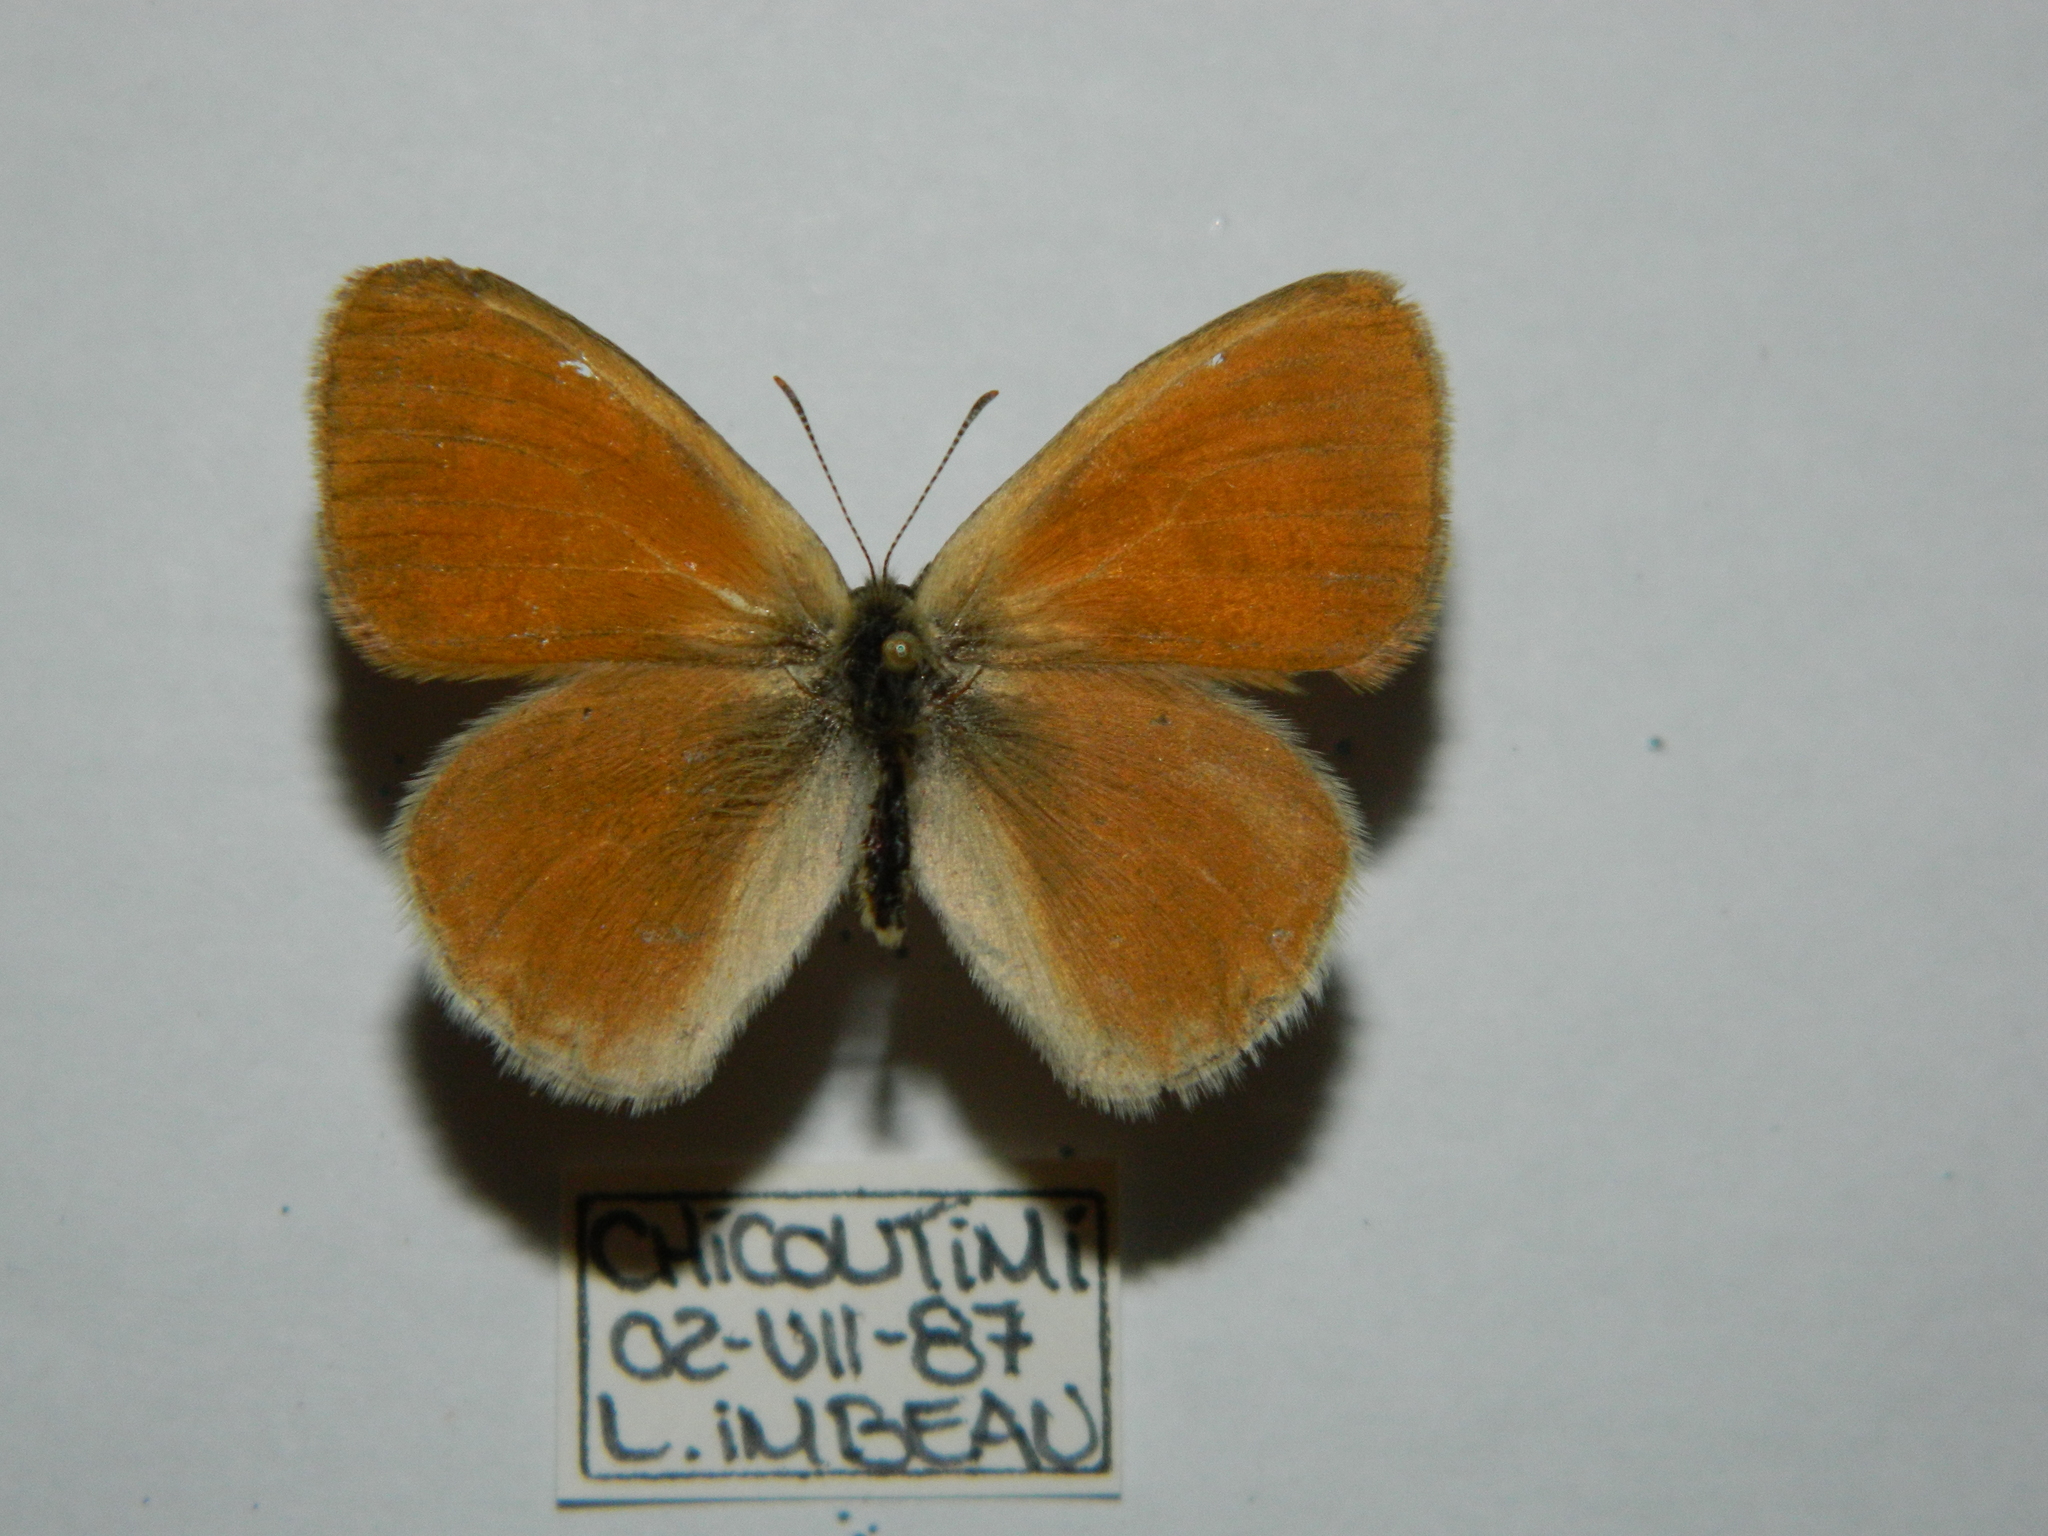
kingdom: Animalia
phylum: Arthropoda
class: Insecta
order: Lepidoptera
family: Nymphalidae
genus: Coenonympha
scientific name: Coenonympha california
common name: Common ringlet
